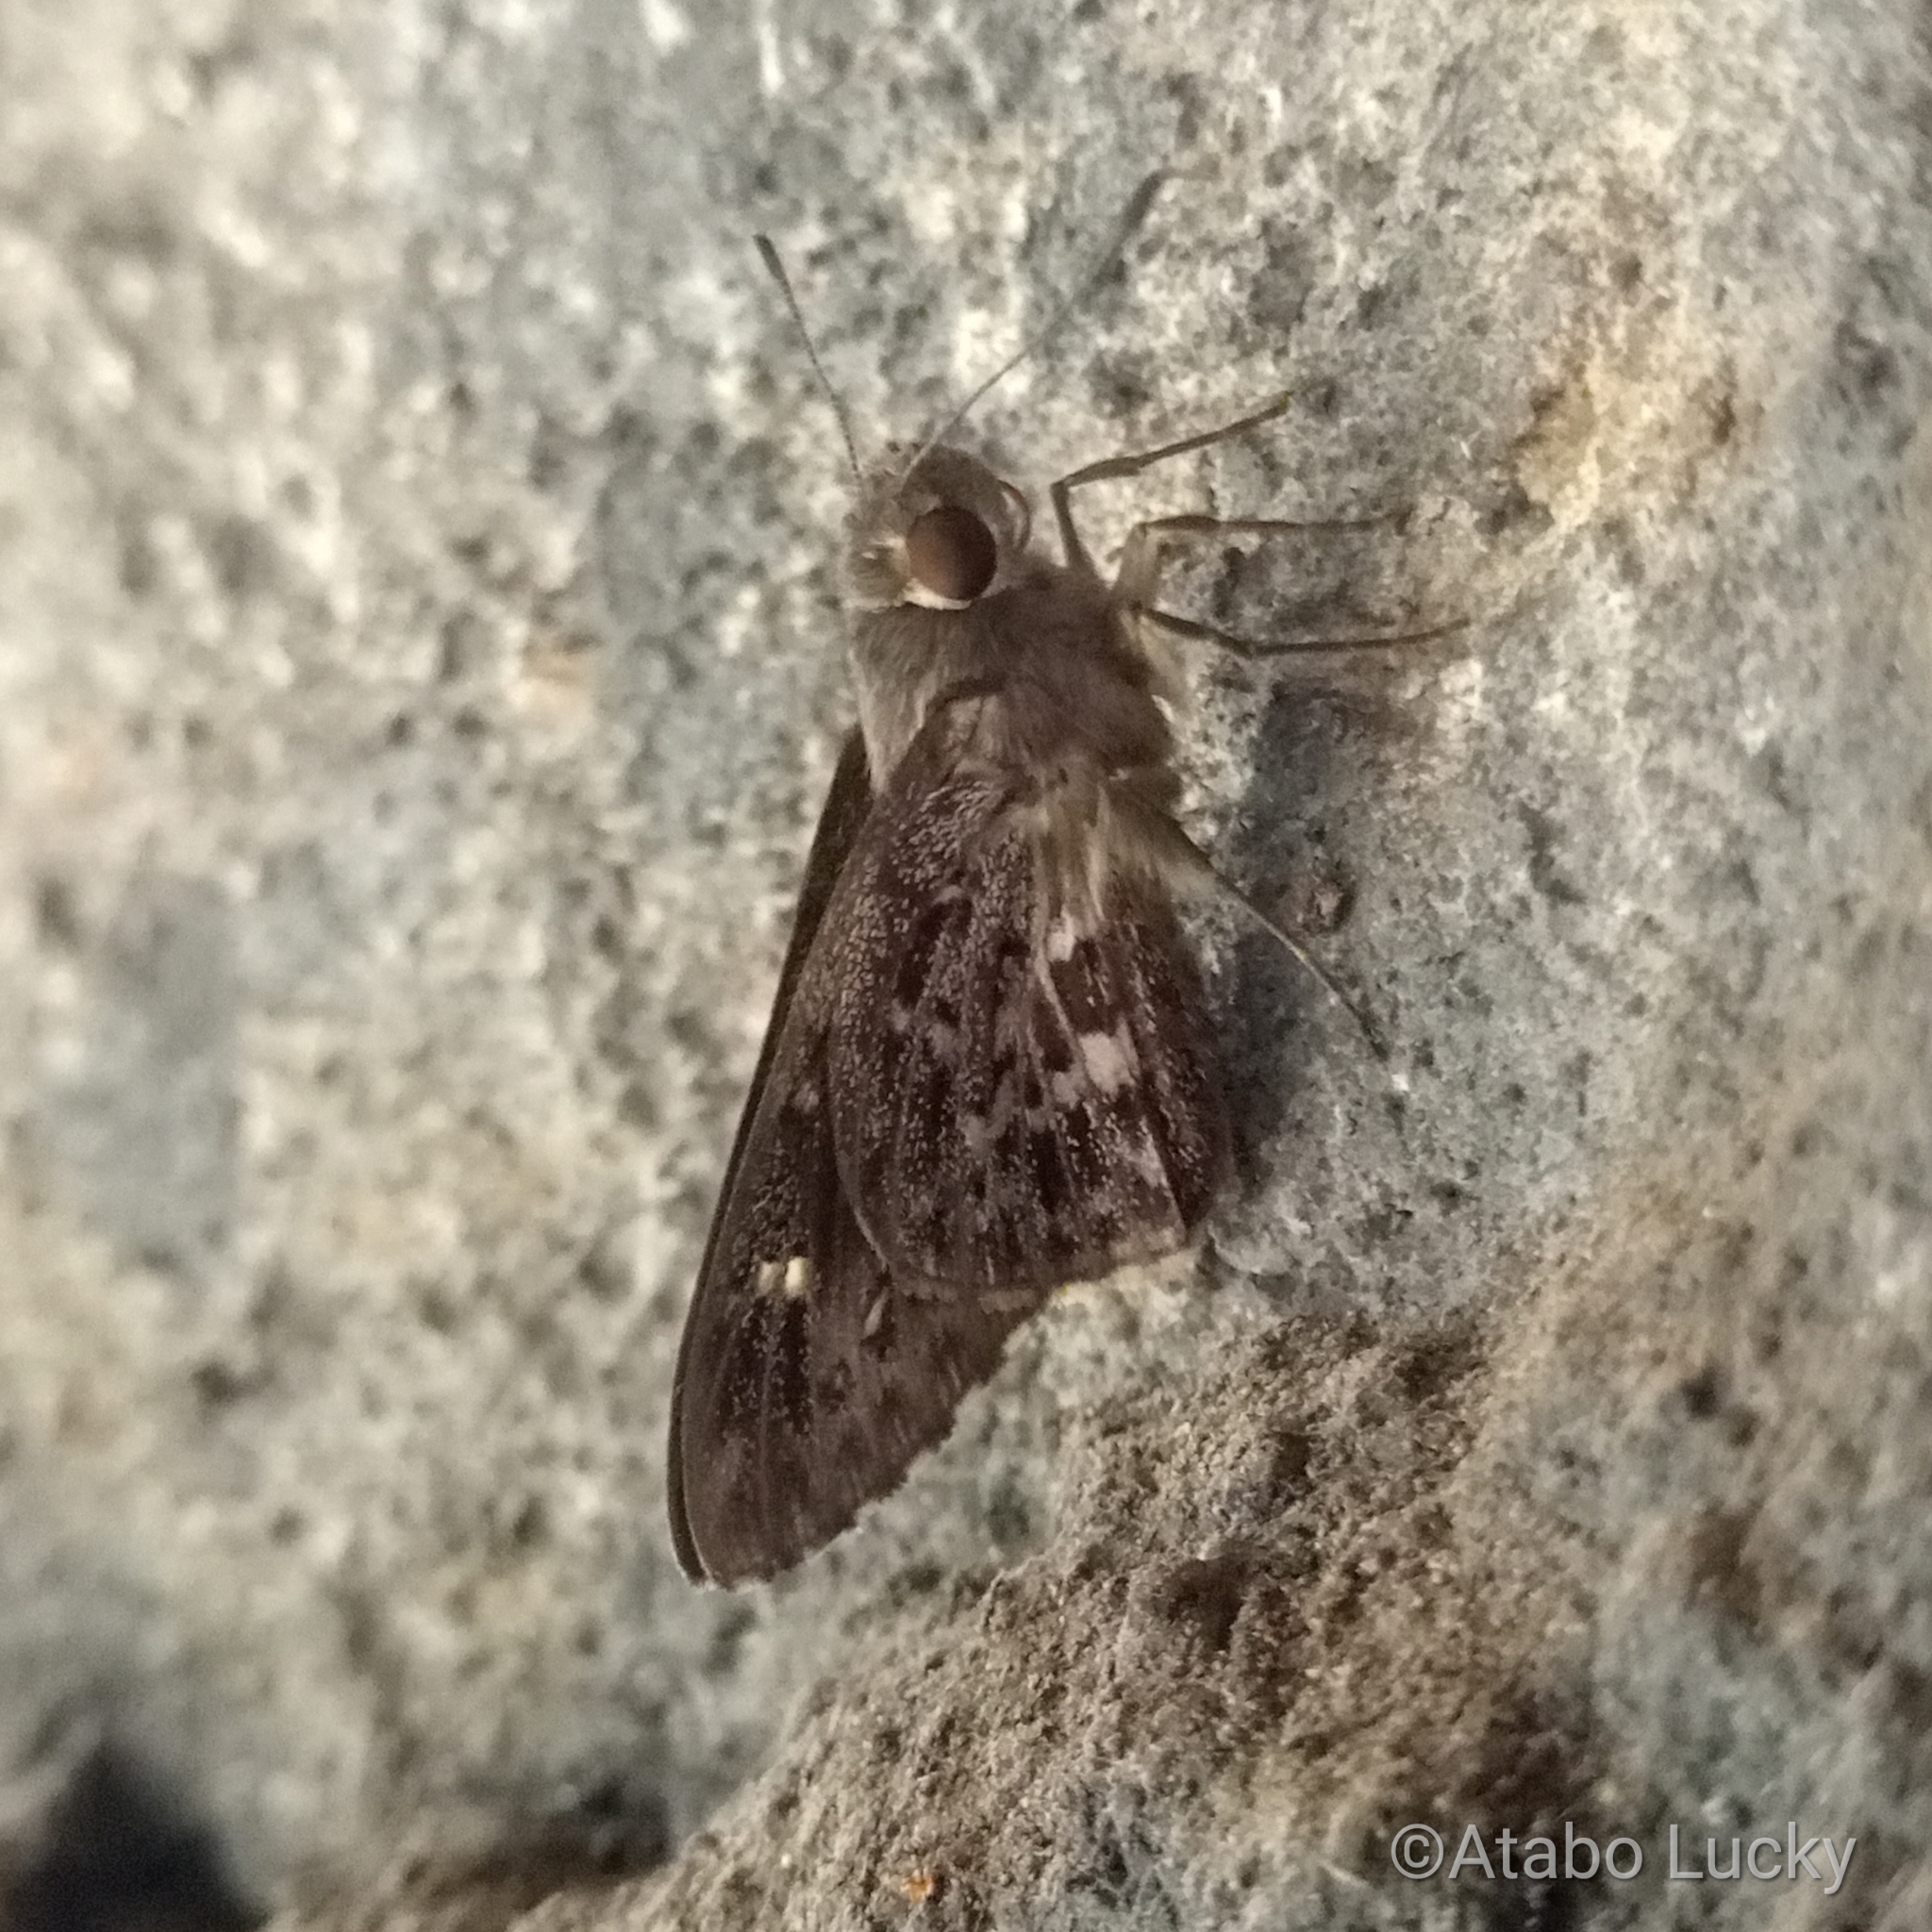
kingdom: Animalia
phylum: Arthropoda
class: Insecta
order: Lepidoptera
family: Hesperiidae
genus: Gretna
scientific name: Gretna waga
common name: Common crepuscular skipper
